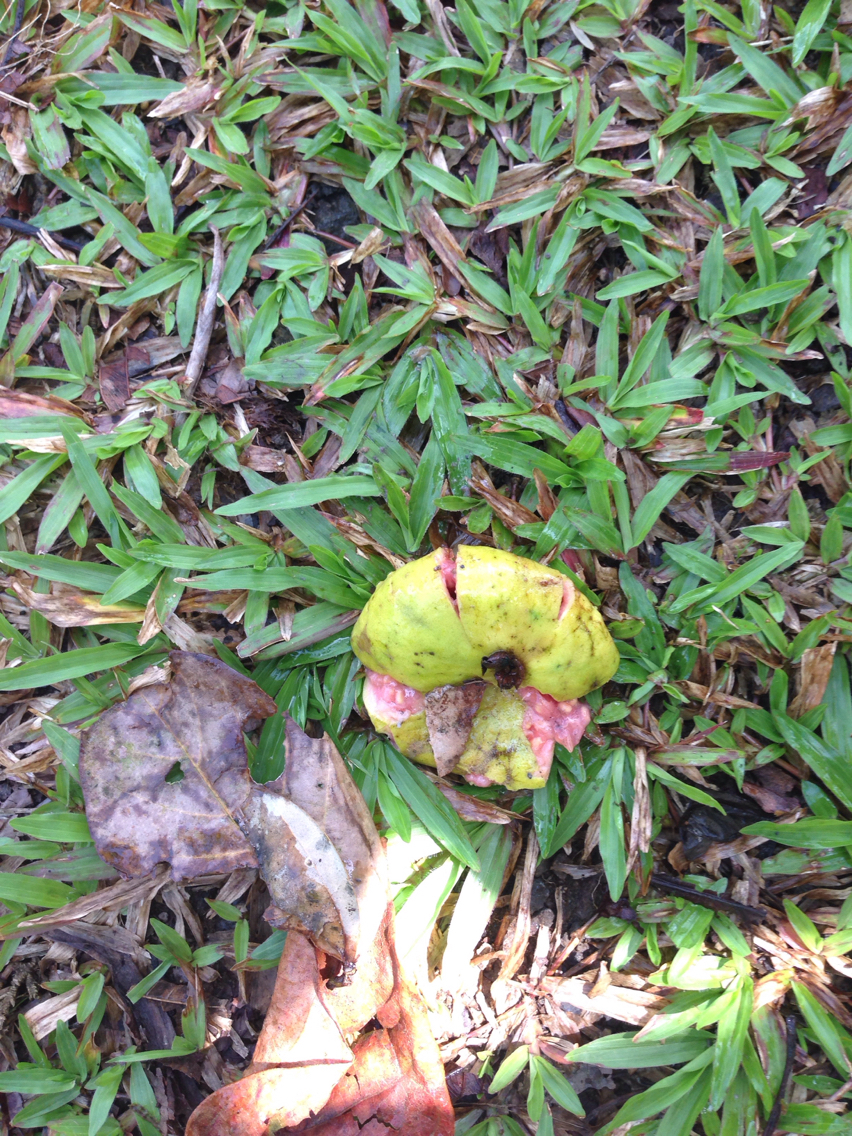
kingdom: Plantae
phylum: Tracheophyta
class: Magnoliopsida
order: Myrtales
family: Myrtaceae
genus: Psidium
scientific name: Psidium guajava
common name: Guava
